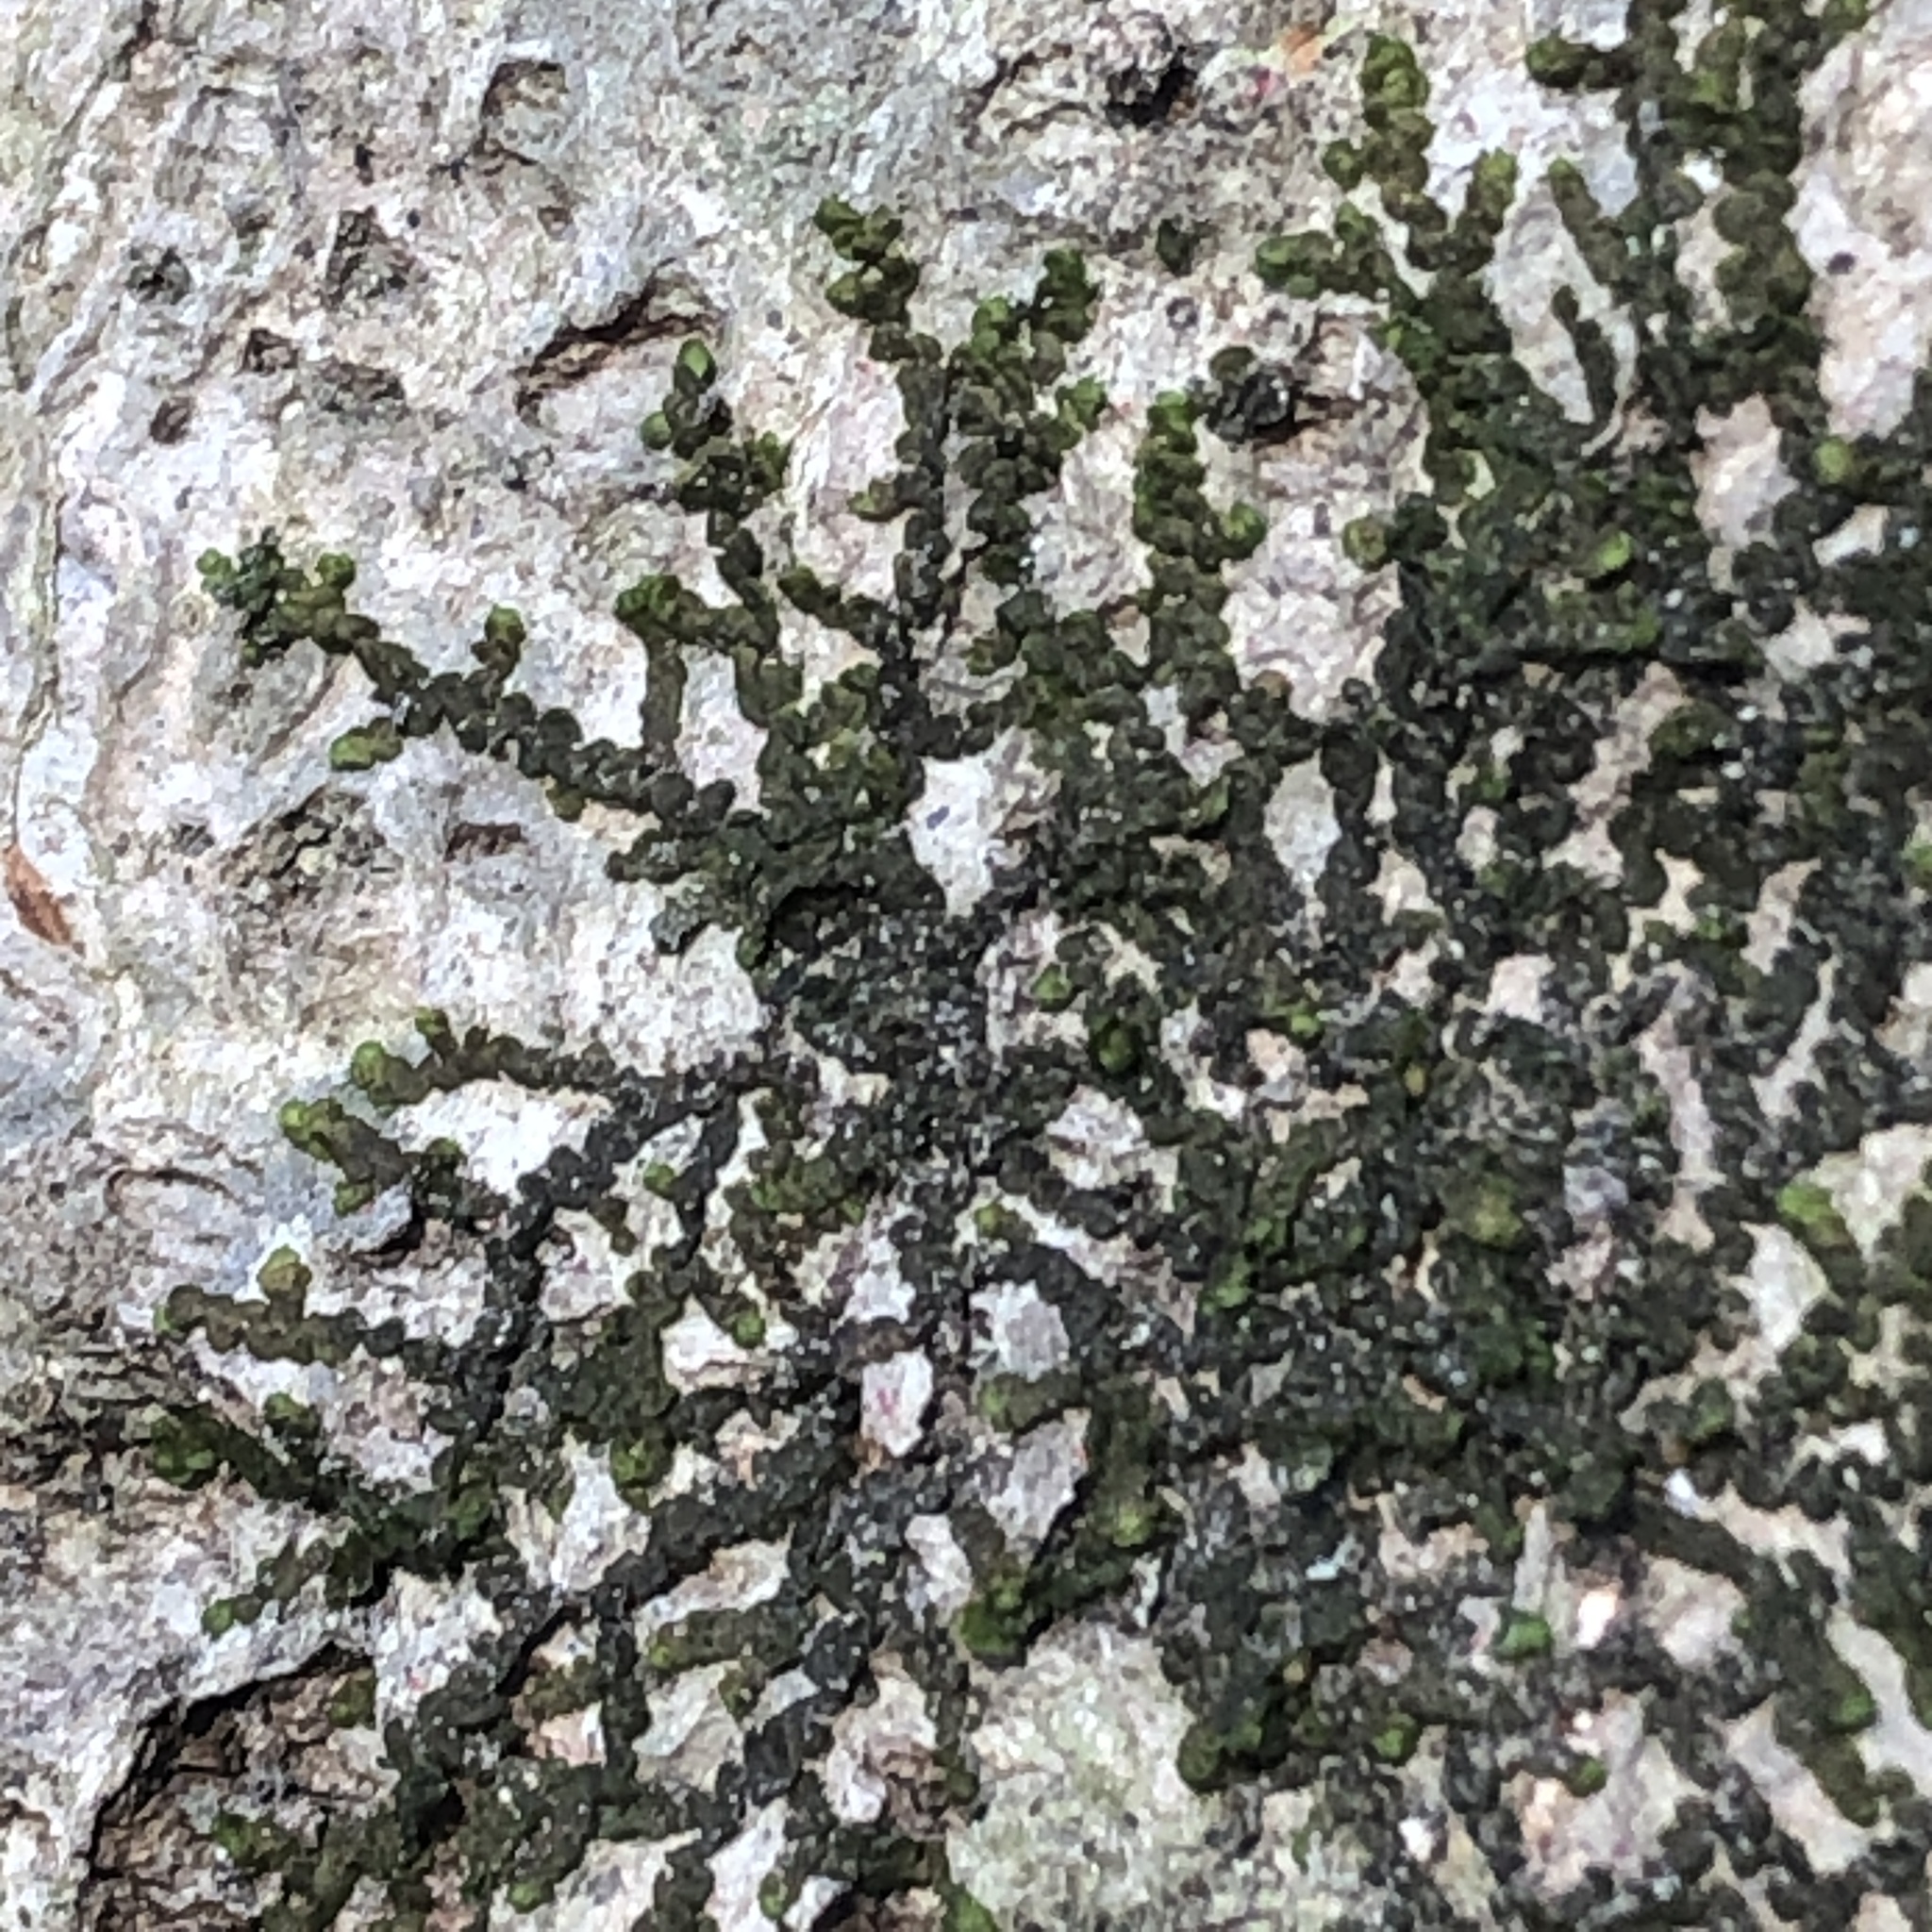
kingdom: Plantae
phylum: Marchantiophyta
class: Jungermanniopsida
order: Porellales
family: Frullaniaceae
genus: Frullania
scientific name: Frullania eboracensis
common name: New york scalewort
